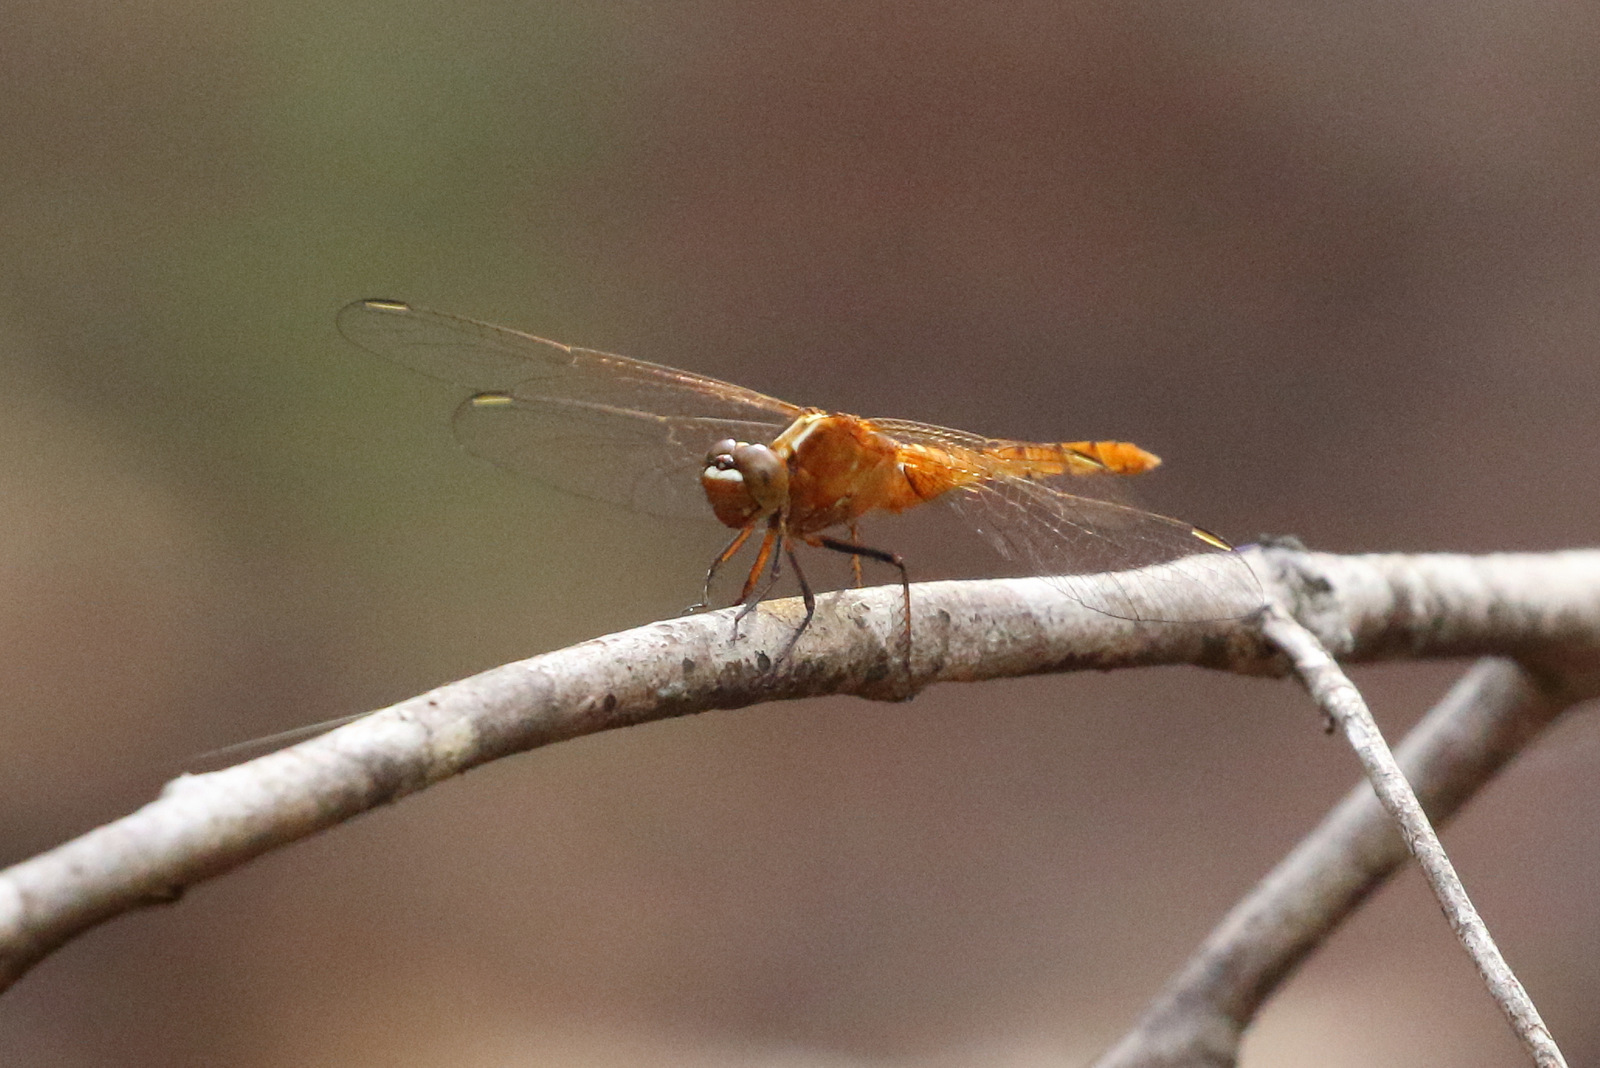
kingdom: Animalia
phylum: Arthropoda
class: Insecta
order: Odonata
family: Libellulidae
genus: Rhodothemis
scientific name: Rhodothemis lieftincki
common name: Red arrow
